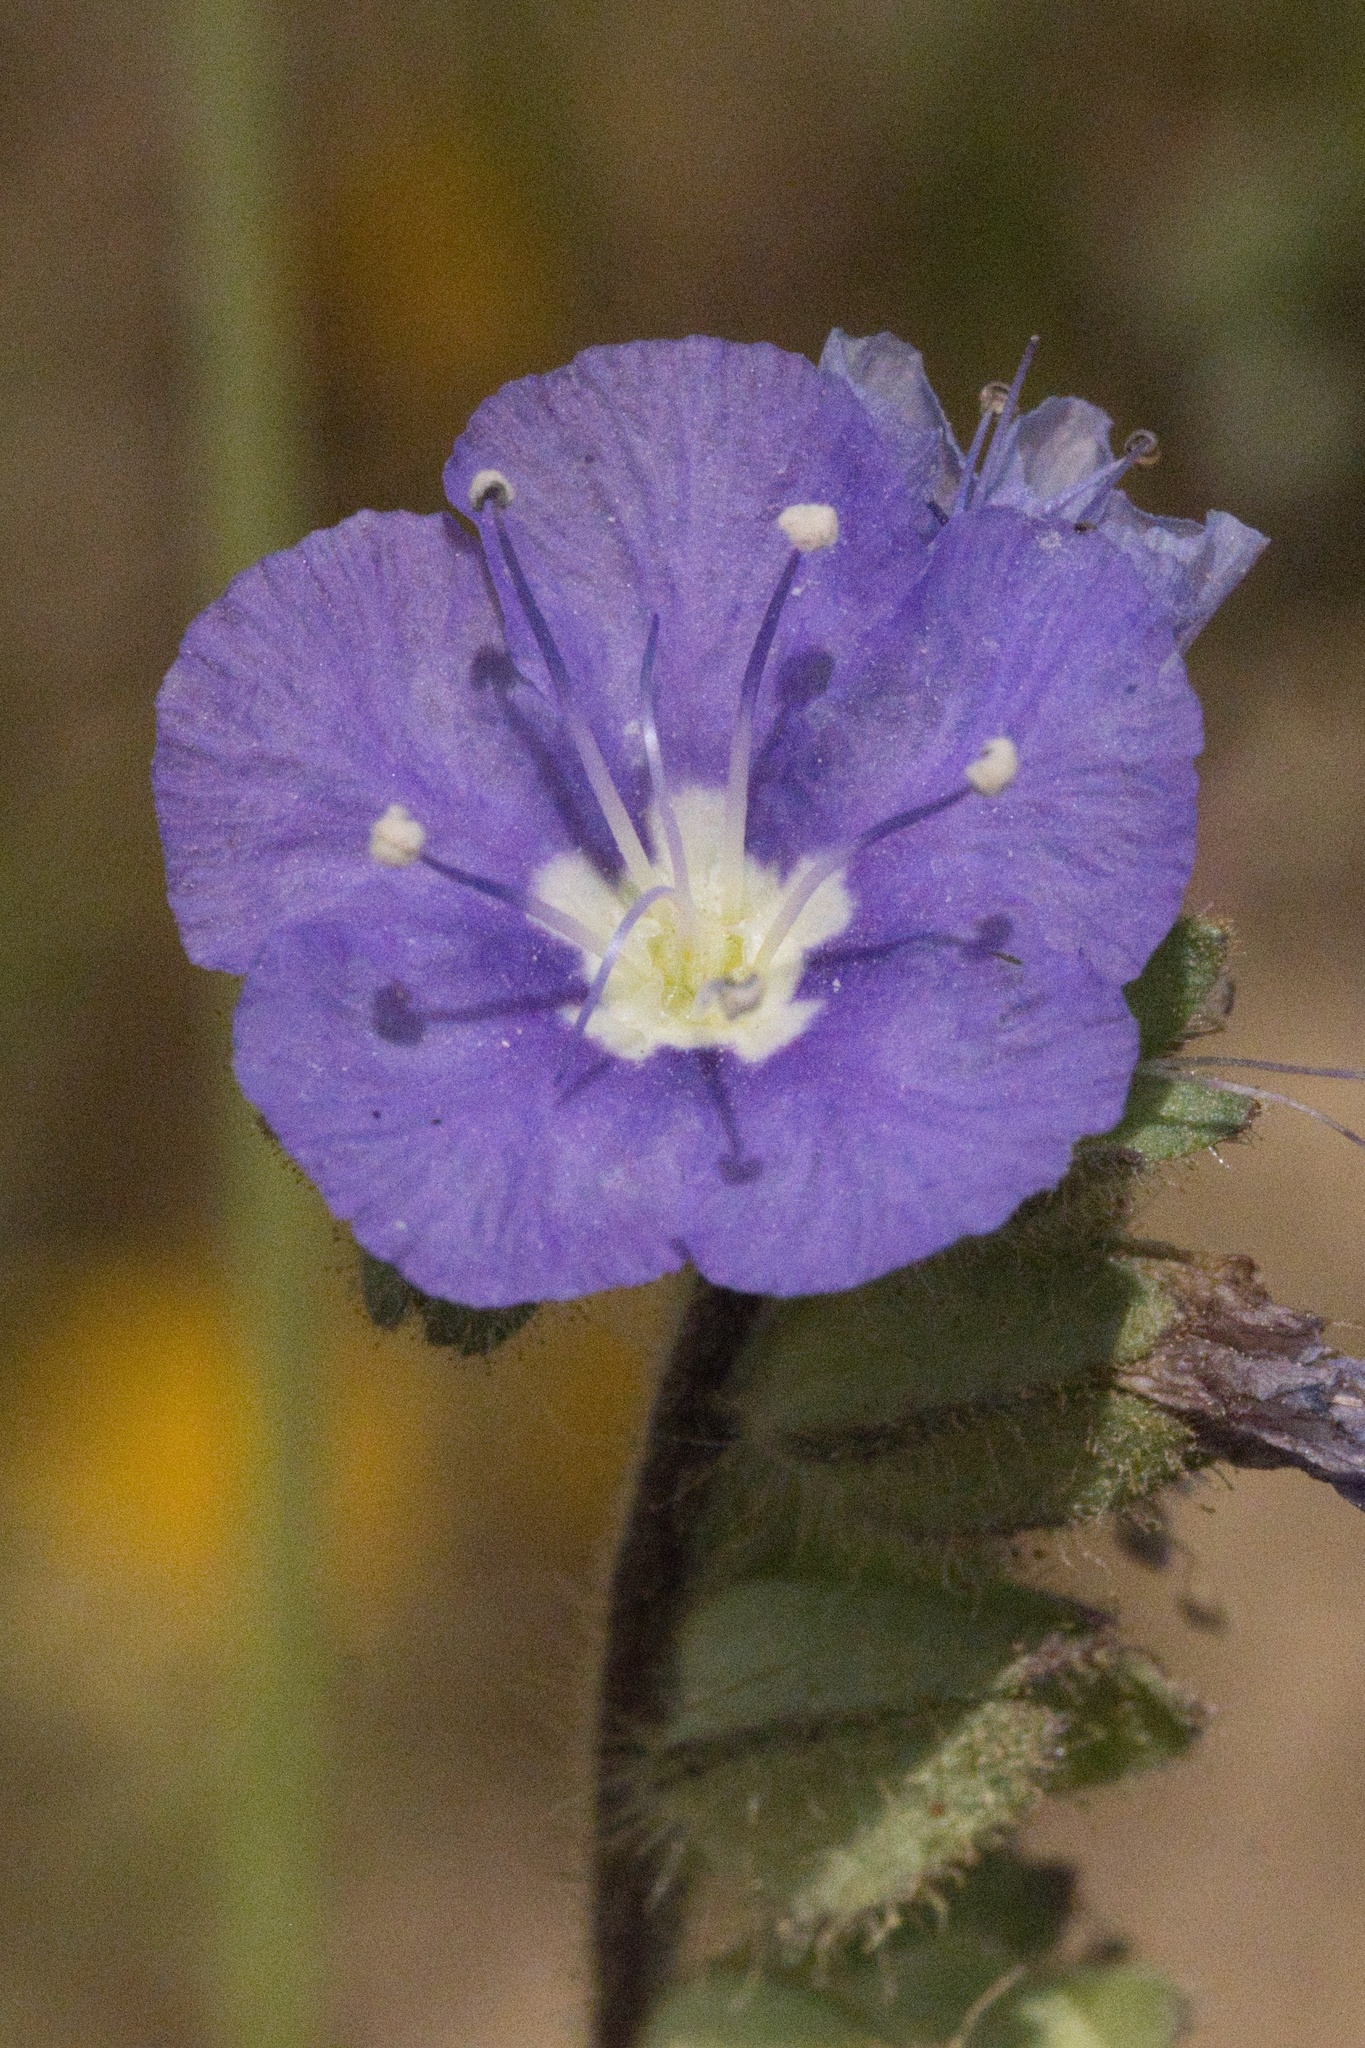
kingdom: Plantae
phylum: Tracheophyta
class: Magnoliopsida
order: Boraginales
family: Hydrophyllaceae
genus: Phacelia
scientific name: Phacelia ciliata
